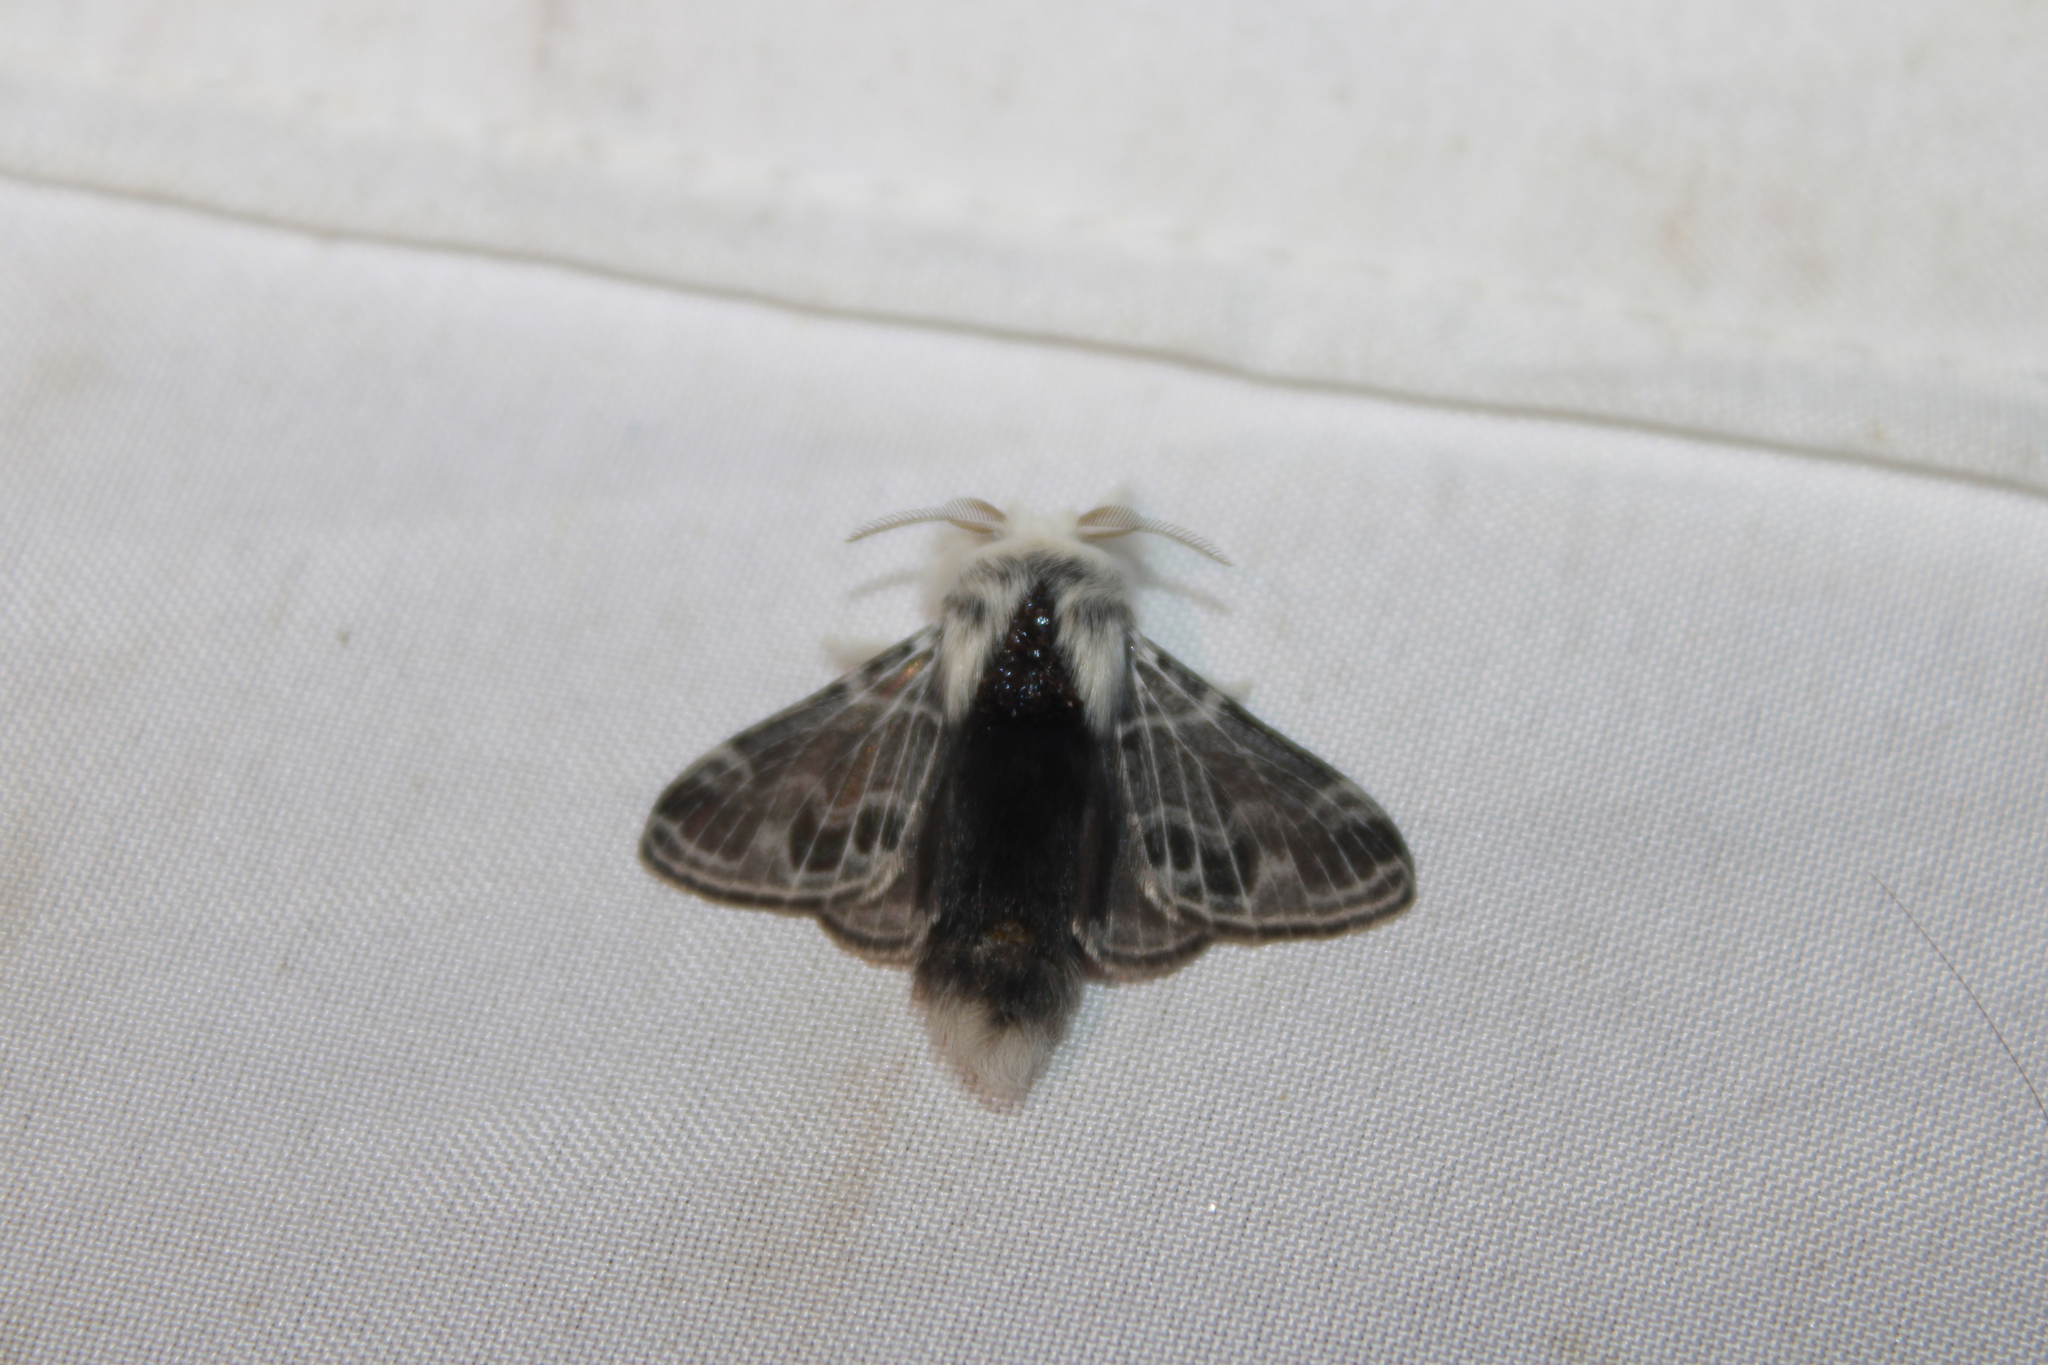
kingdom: Animalia
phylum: Arthropoda
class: Insecta
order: Lepidoptera
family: Lasiocampidae
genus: Tolype
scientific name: Tolype velleda
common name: Large tolype moth
